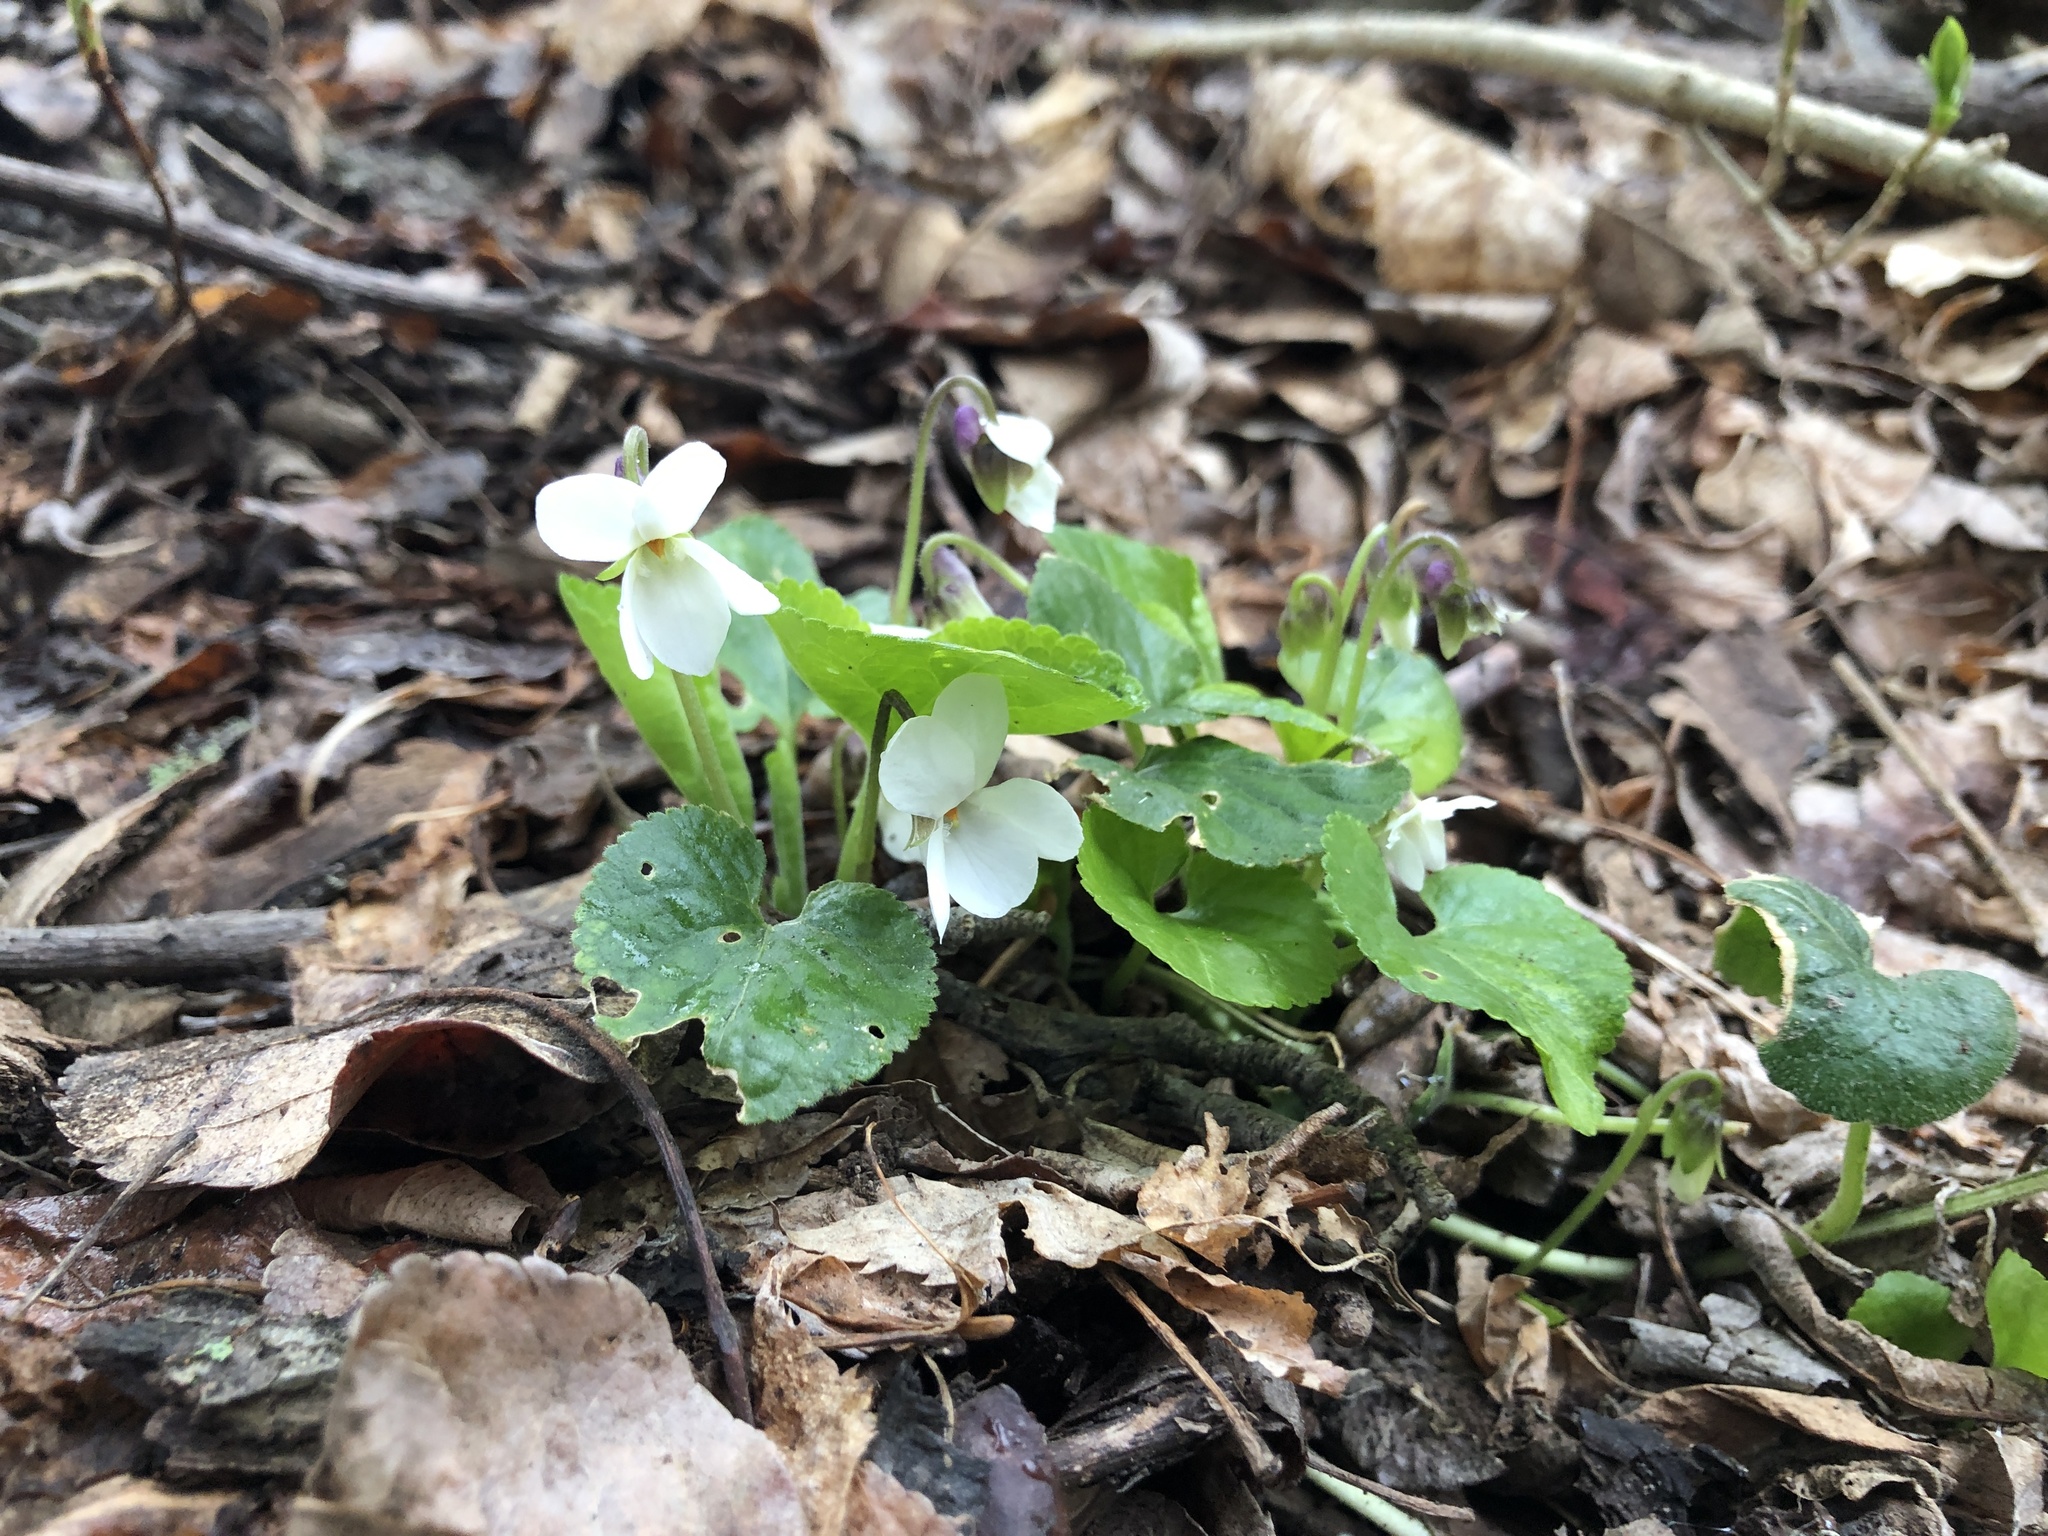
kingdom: Plantae
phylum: Tracheophyta
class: Magnoliopsida
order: Malpighiales
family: Violaceae
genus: Viola
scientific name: Viola odorata
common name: Sweet violet
